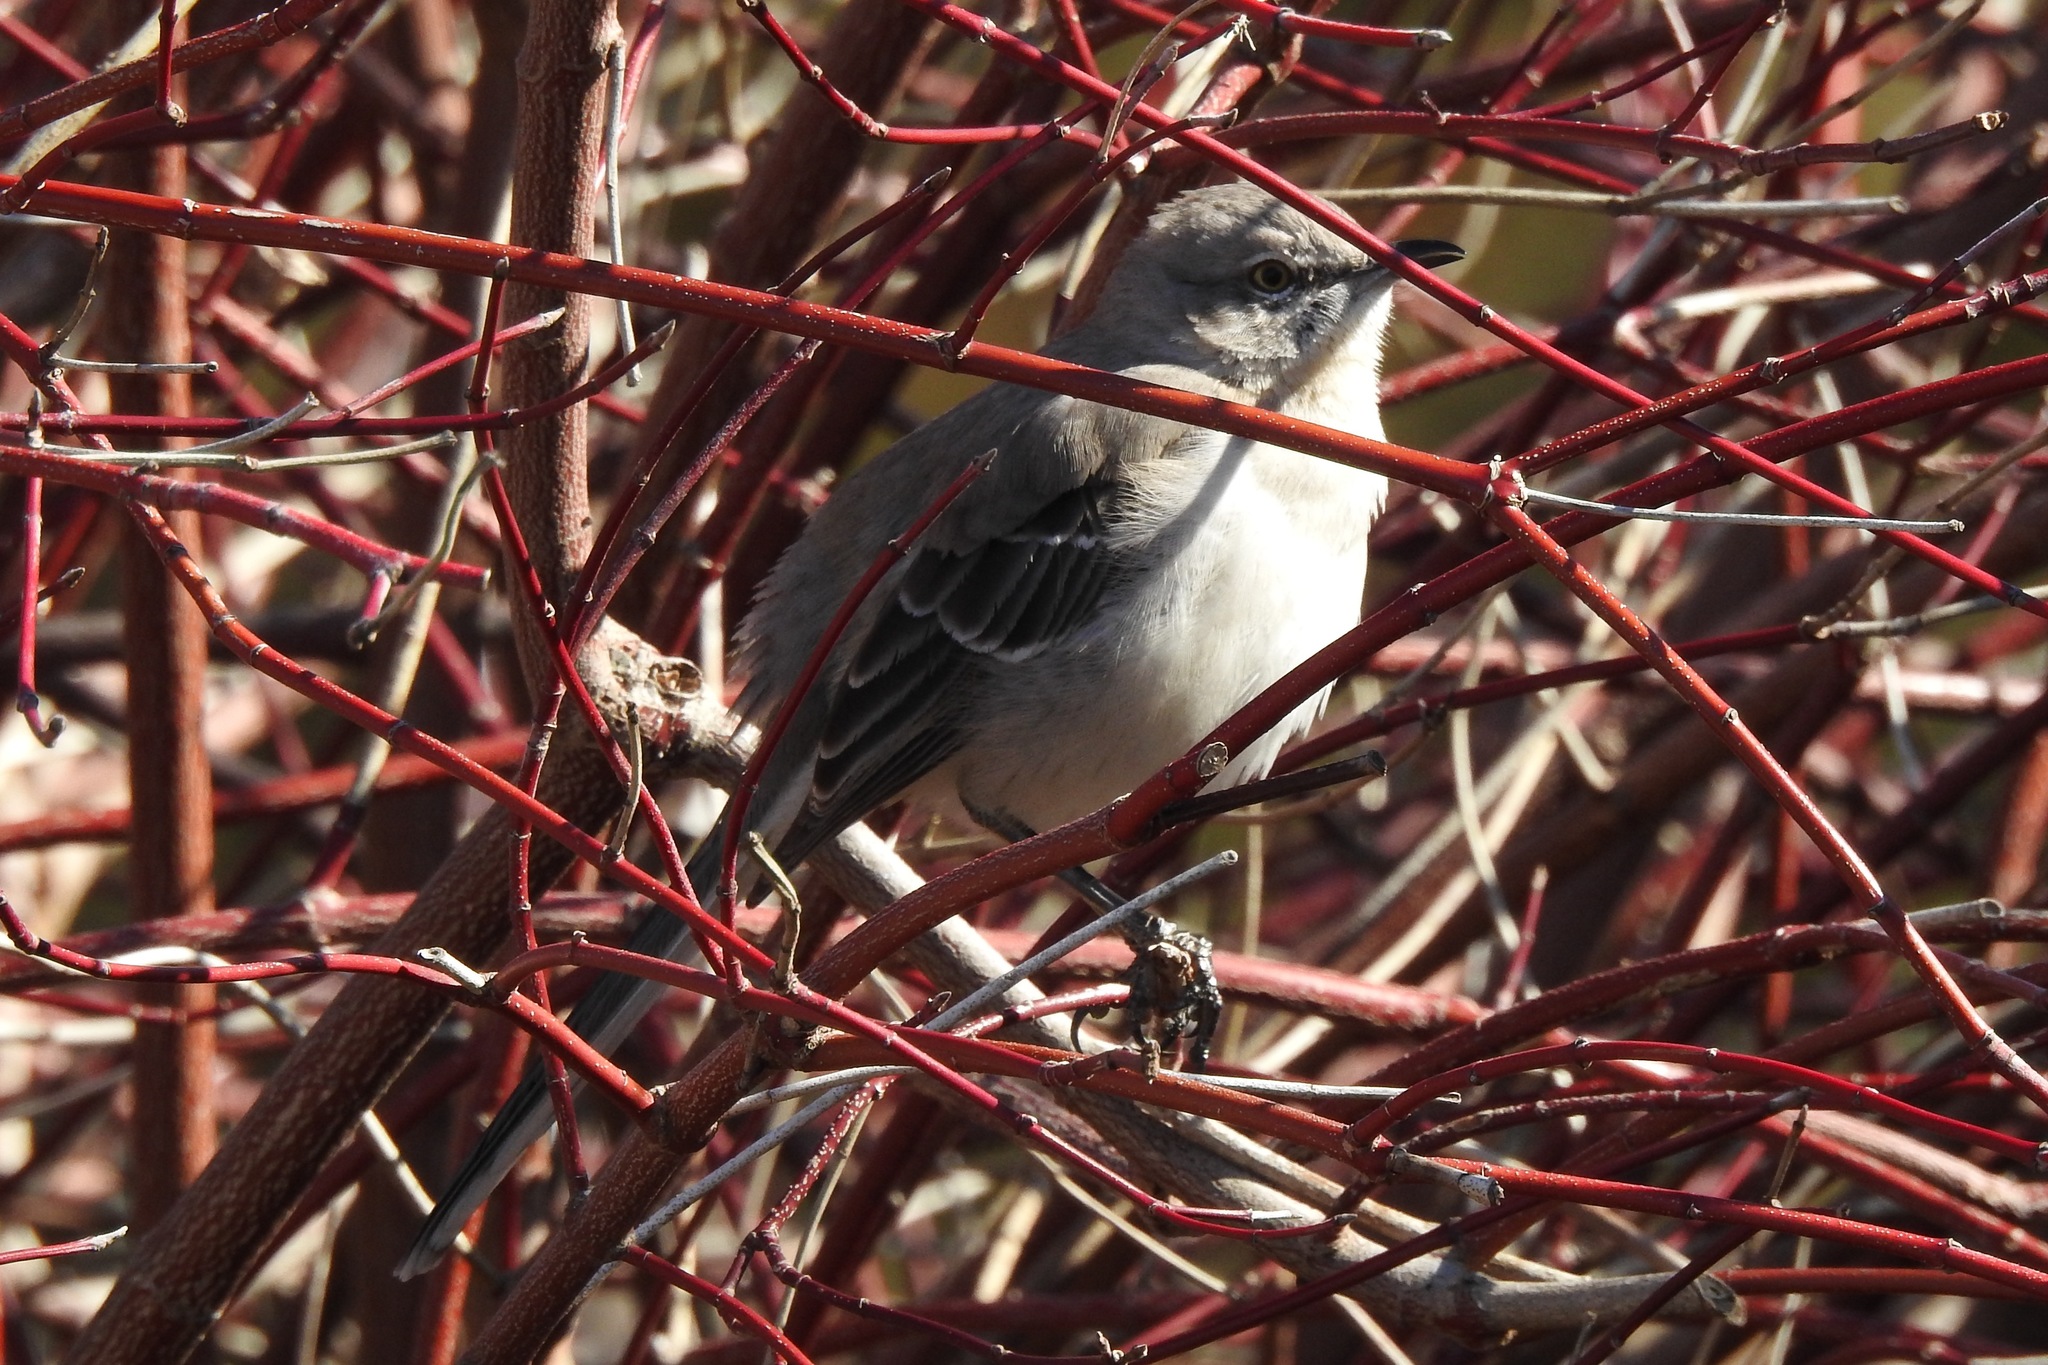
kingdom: Animalia
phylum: Chordata
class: Aves
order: Passeriformes
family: Mimidae
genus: Mimus
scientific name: Mimus polyglottos
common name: Northern mockingbird
